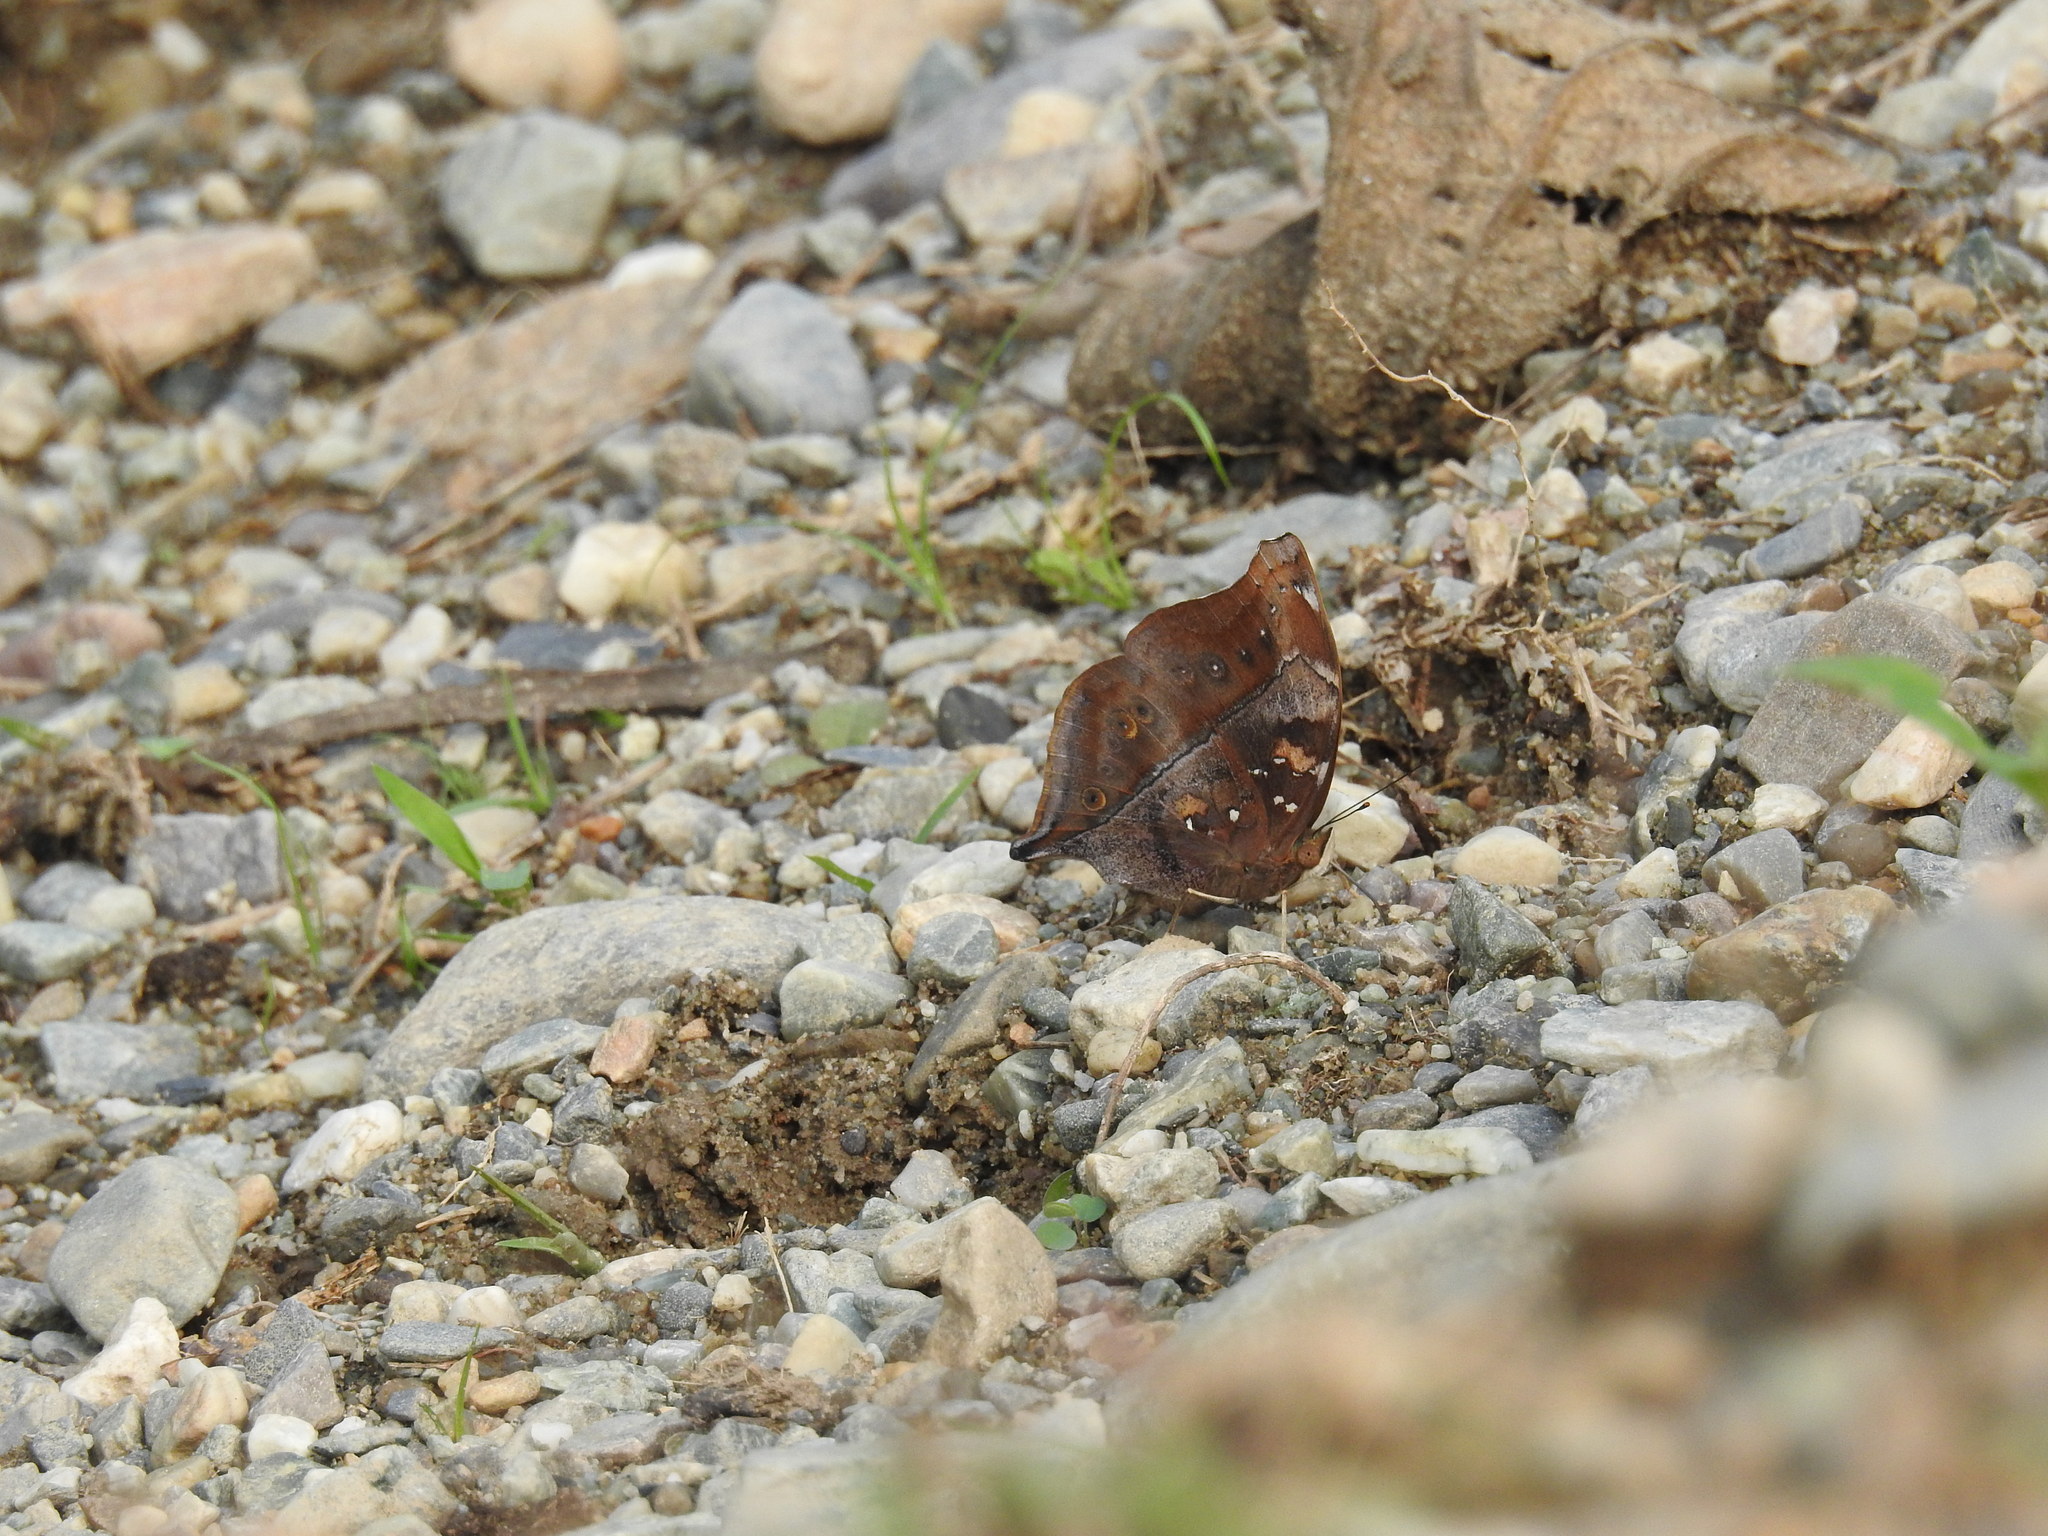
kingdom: Animalia
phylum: Arthropoda
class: Insecta
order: Lepidoptera
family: Nymphalidae
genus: Doleschallia
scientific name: Doleschallia bisaltide
